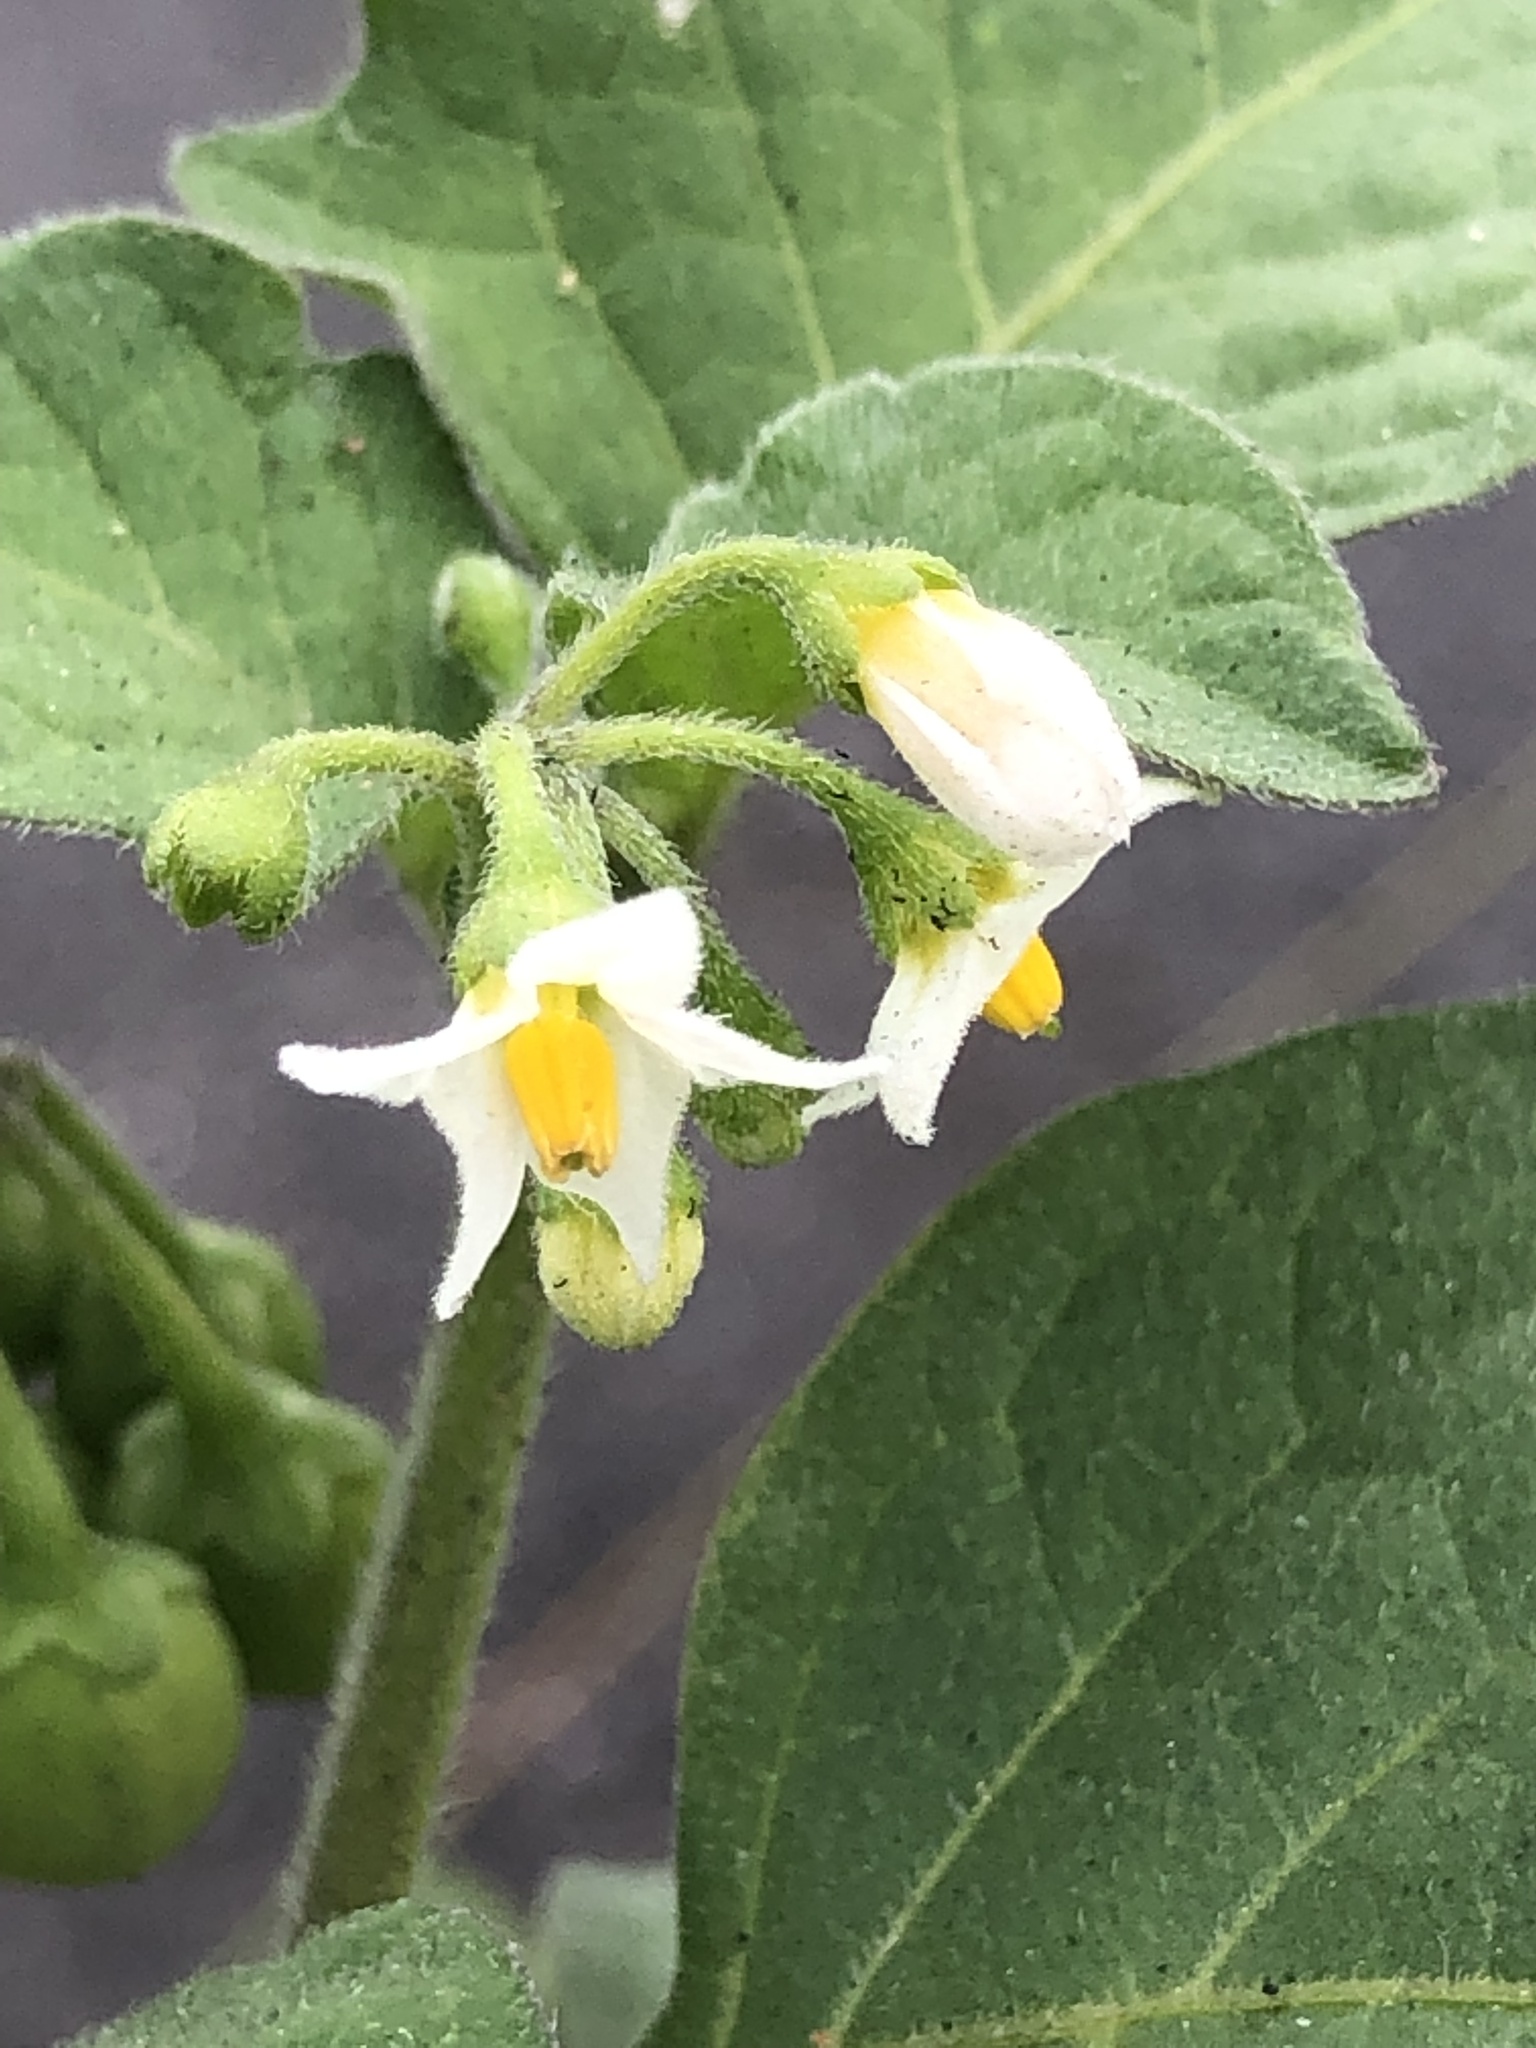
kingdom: Plantae
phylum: Tracheophyta
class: Magnoliopsida
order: Solanales
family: Solanaceae
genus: Solanum
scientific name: Solanum nigrum
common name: Black nightshade
